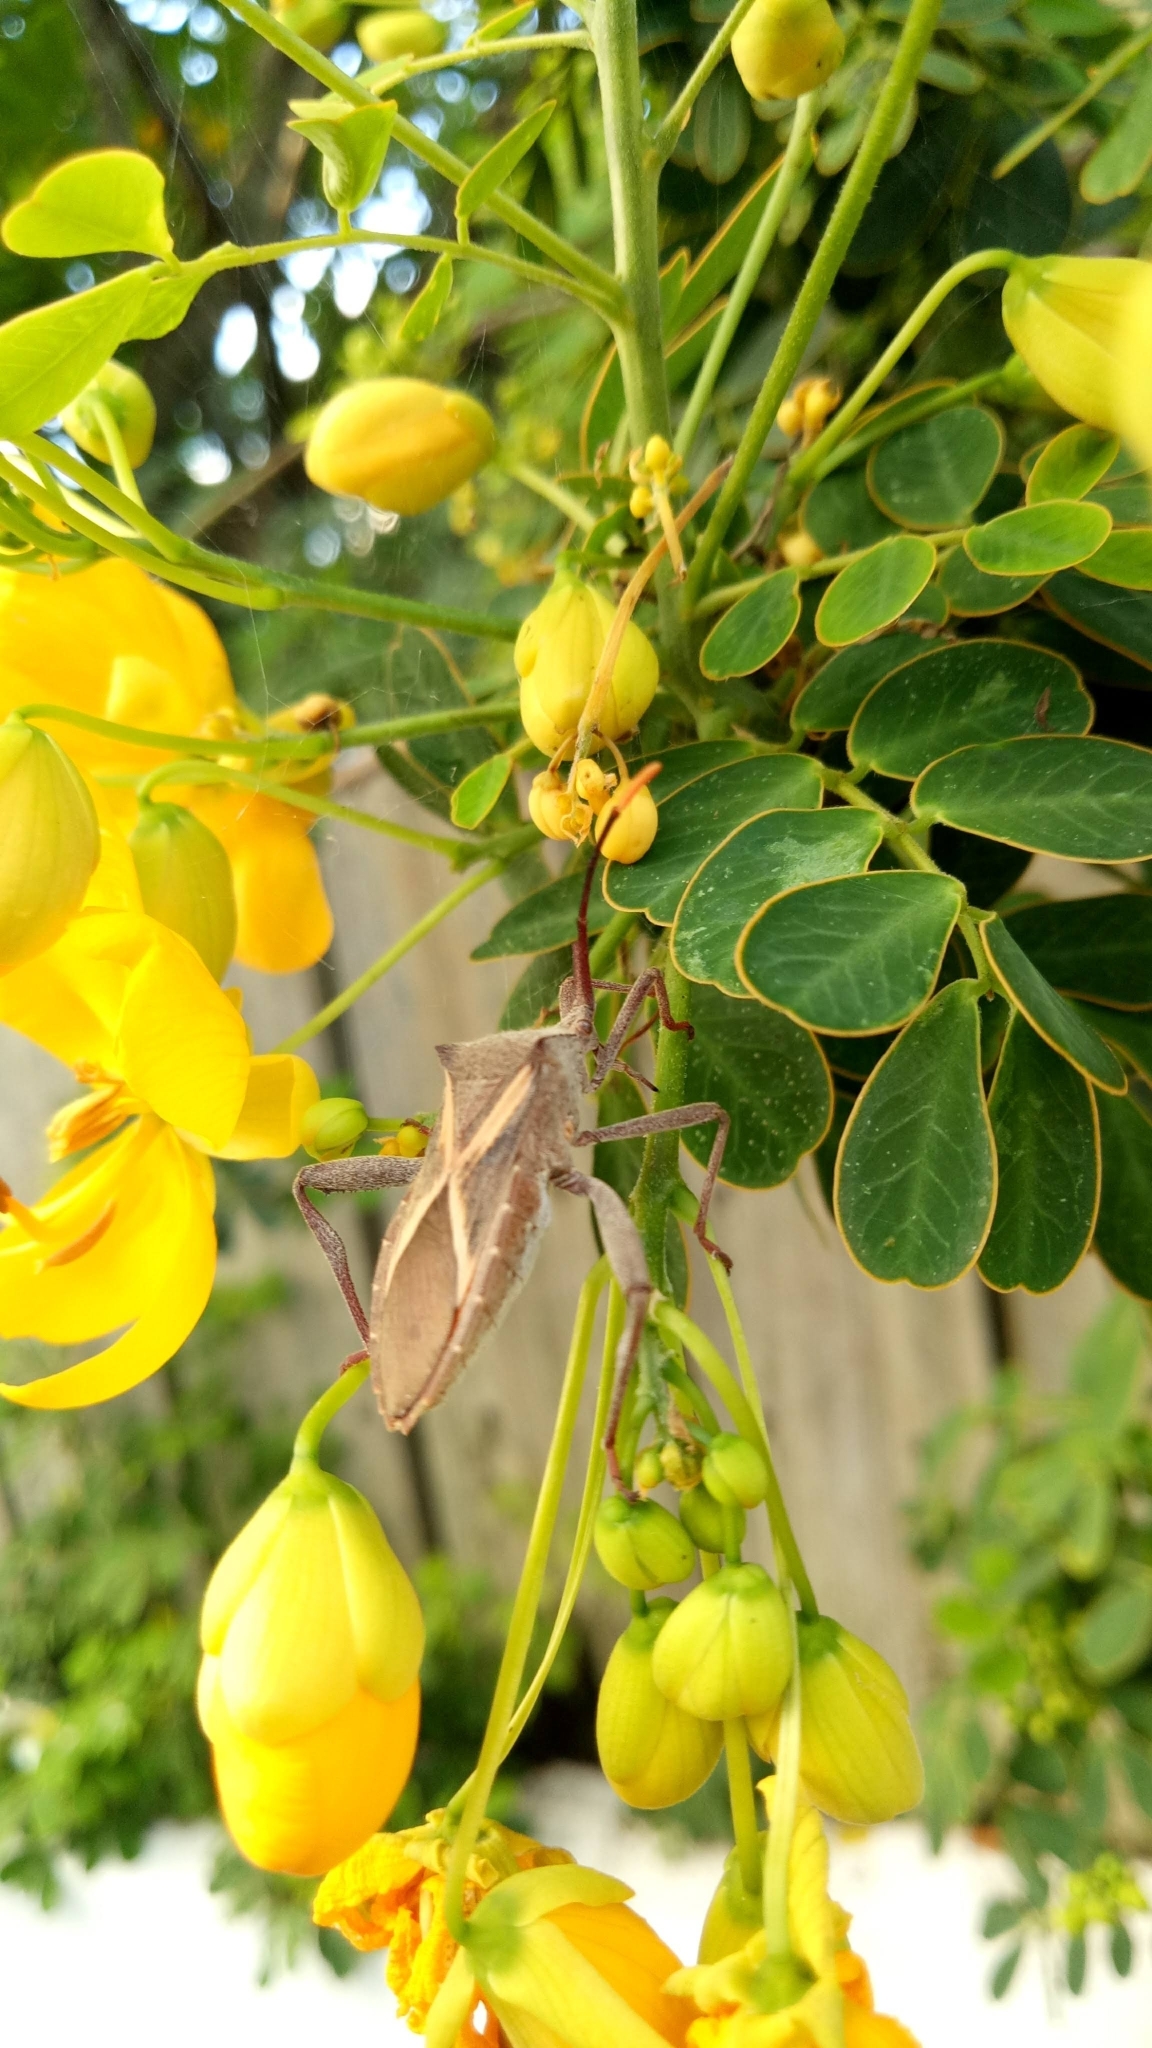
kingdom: Animalia
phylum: Arthropoda
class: Insecta
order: Hemiptera
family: Coreidae
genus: Mictis
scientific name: Mictis profana
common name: Crusader bug
